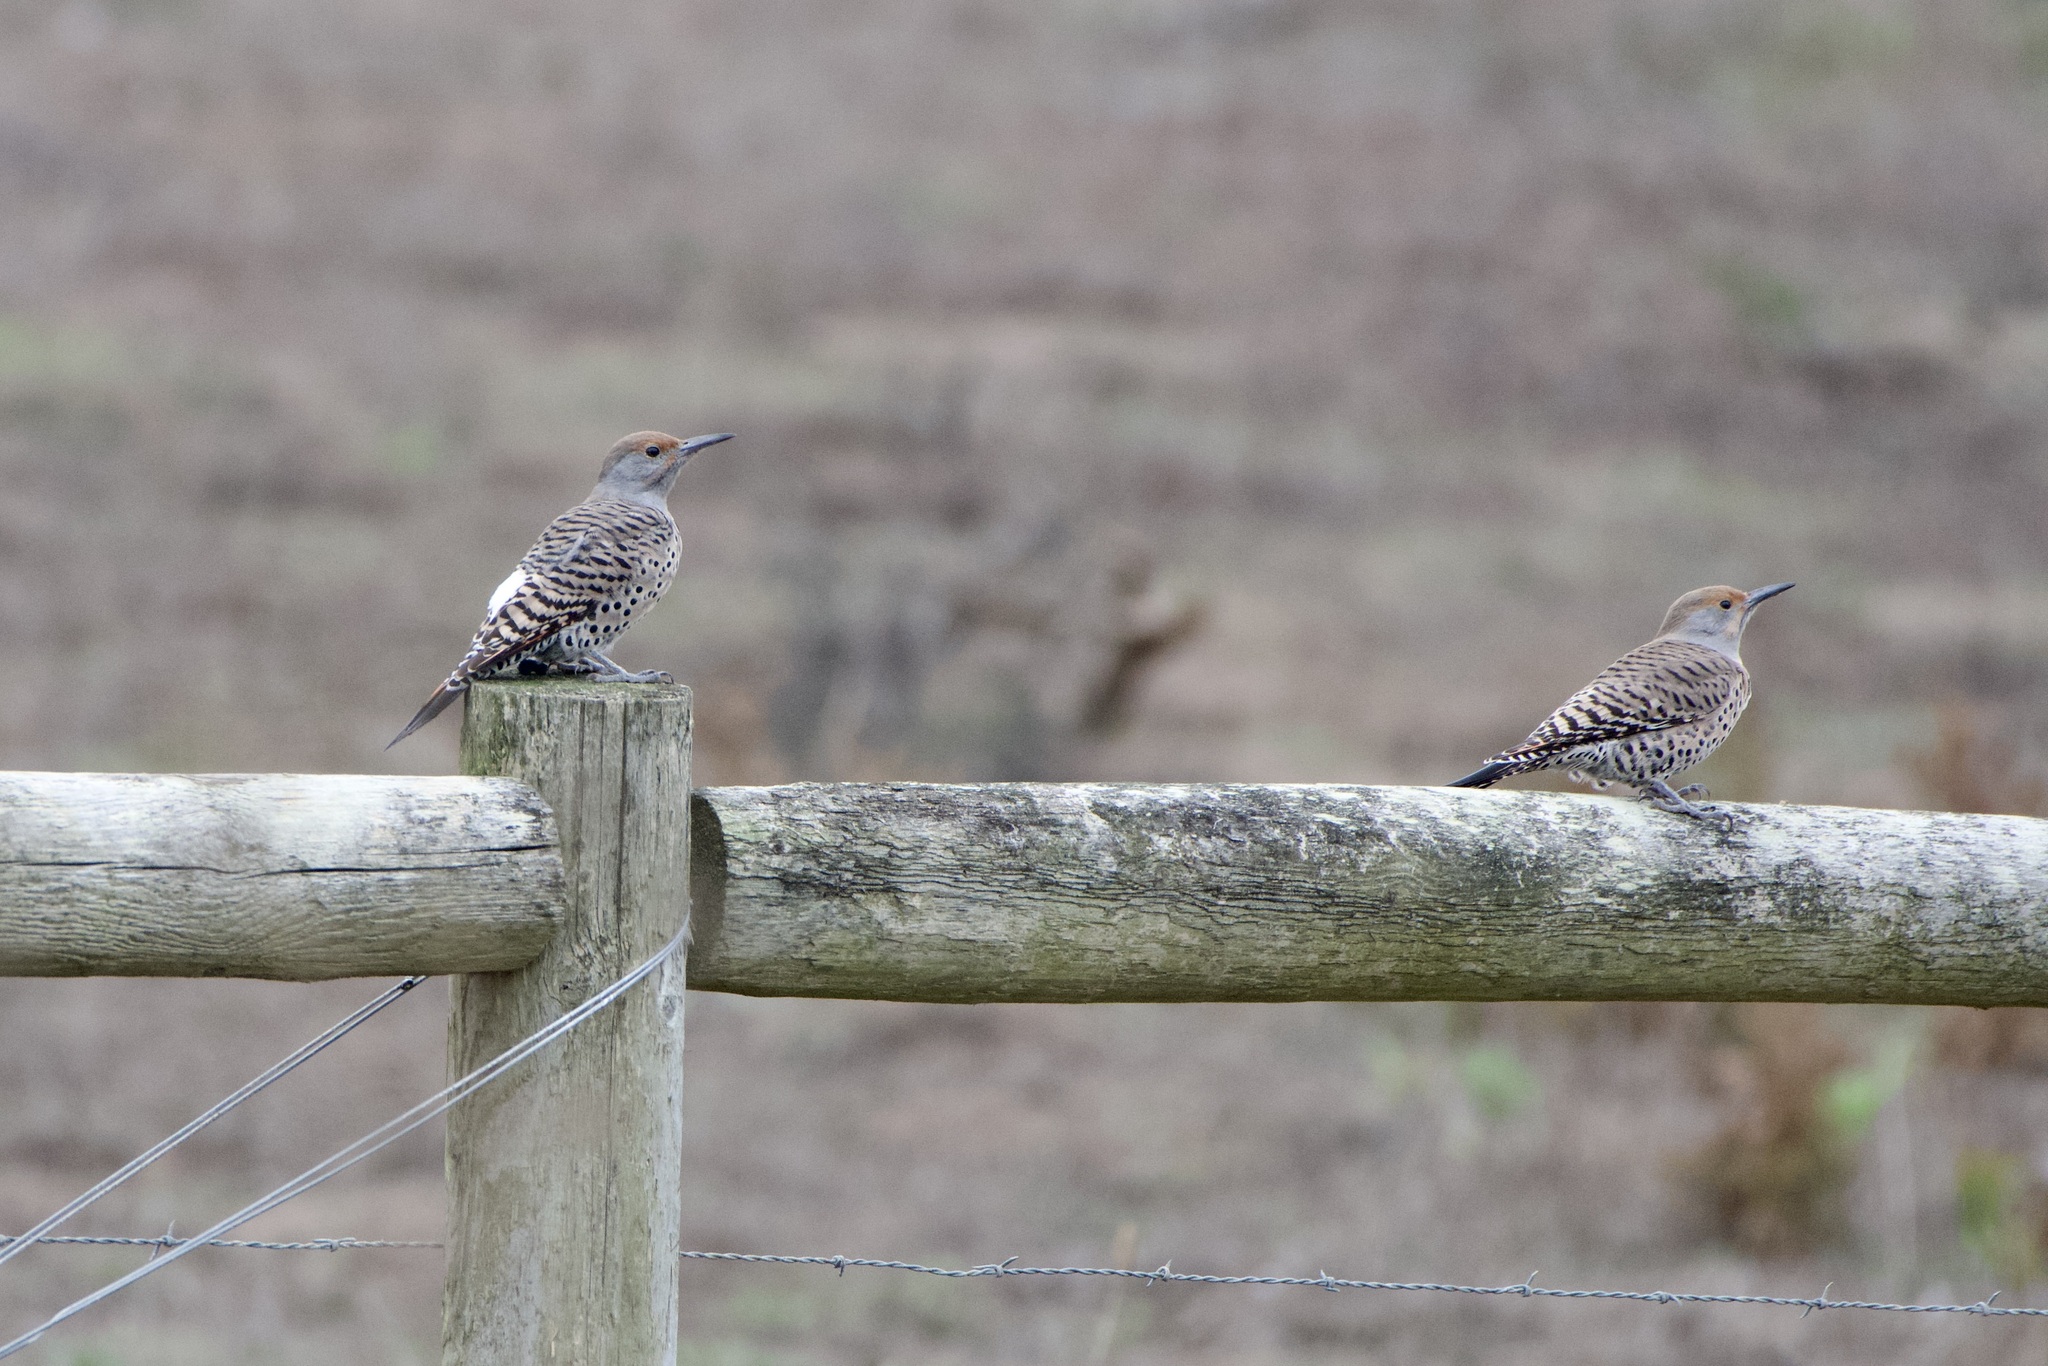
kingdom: Animalia
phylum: Chordata
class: Aves
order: Piciformes
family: Picidae
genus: Colaptes
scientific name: Colaptes auratus
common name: Northern flicker
